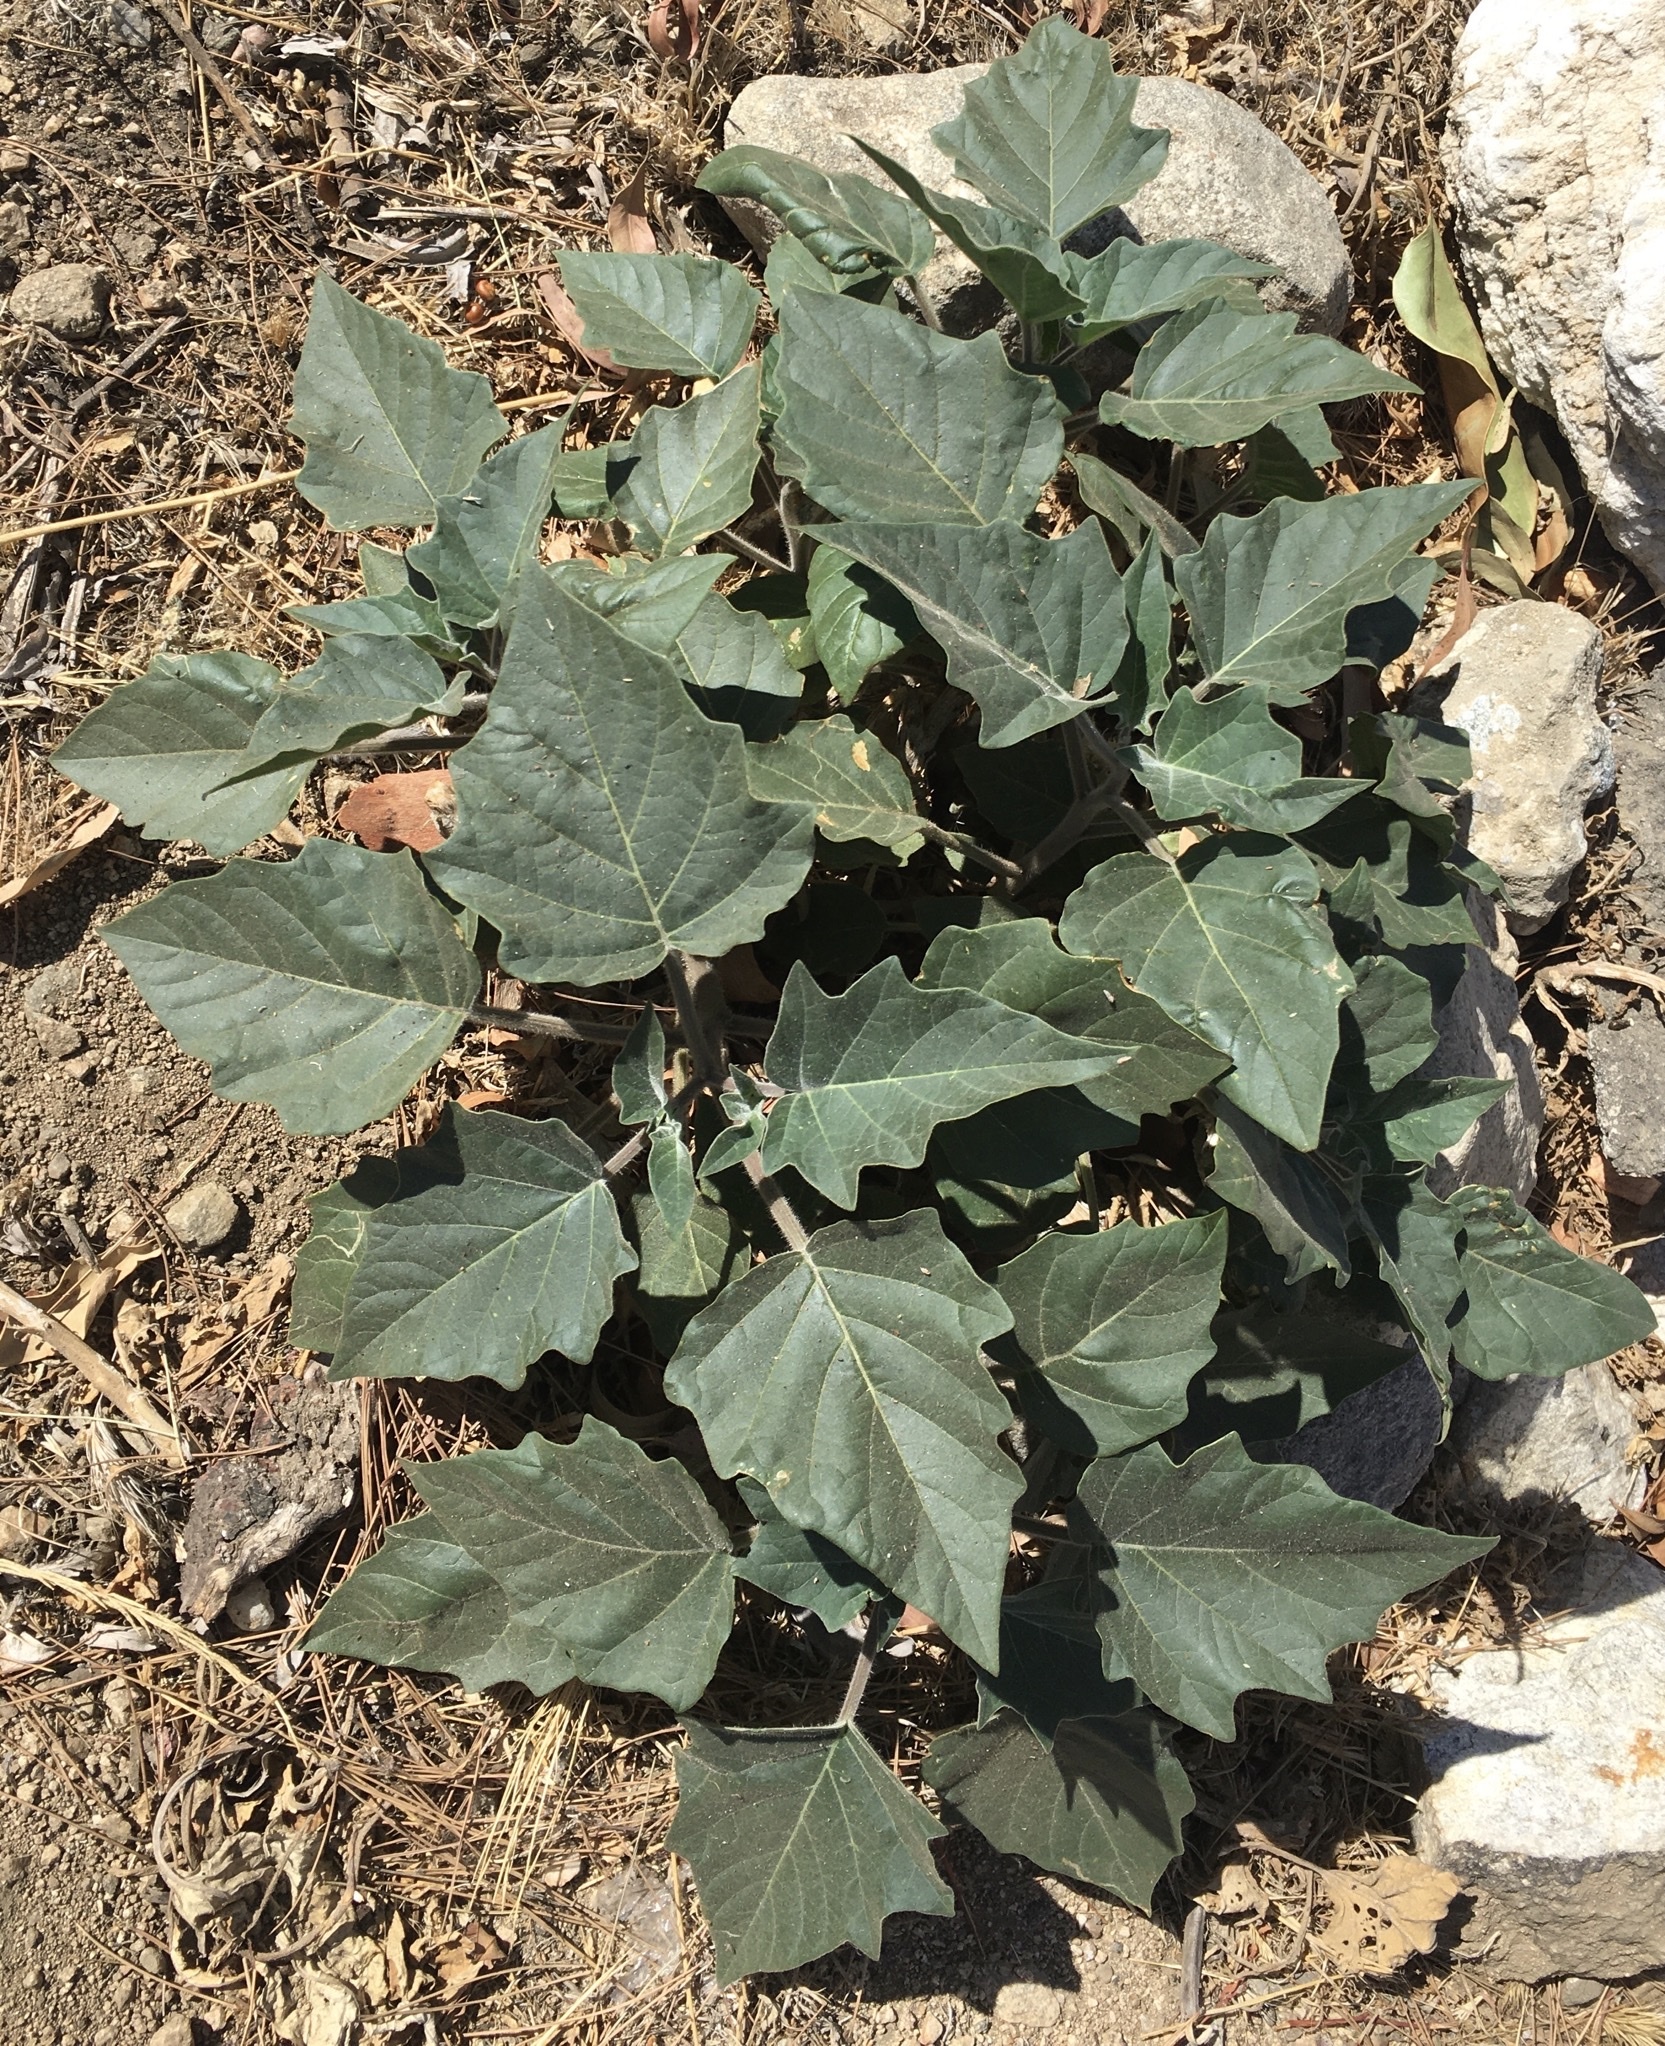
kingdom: Plantae
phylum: Tracheophyta
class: Magnoliopsida
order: Solanales
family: Solanaceae
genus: Datura
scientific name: Datura wrightii
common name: Sacred thorn-apple
